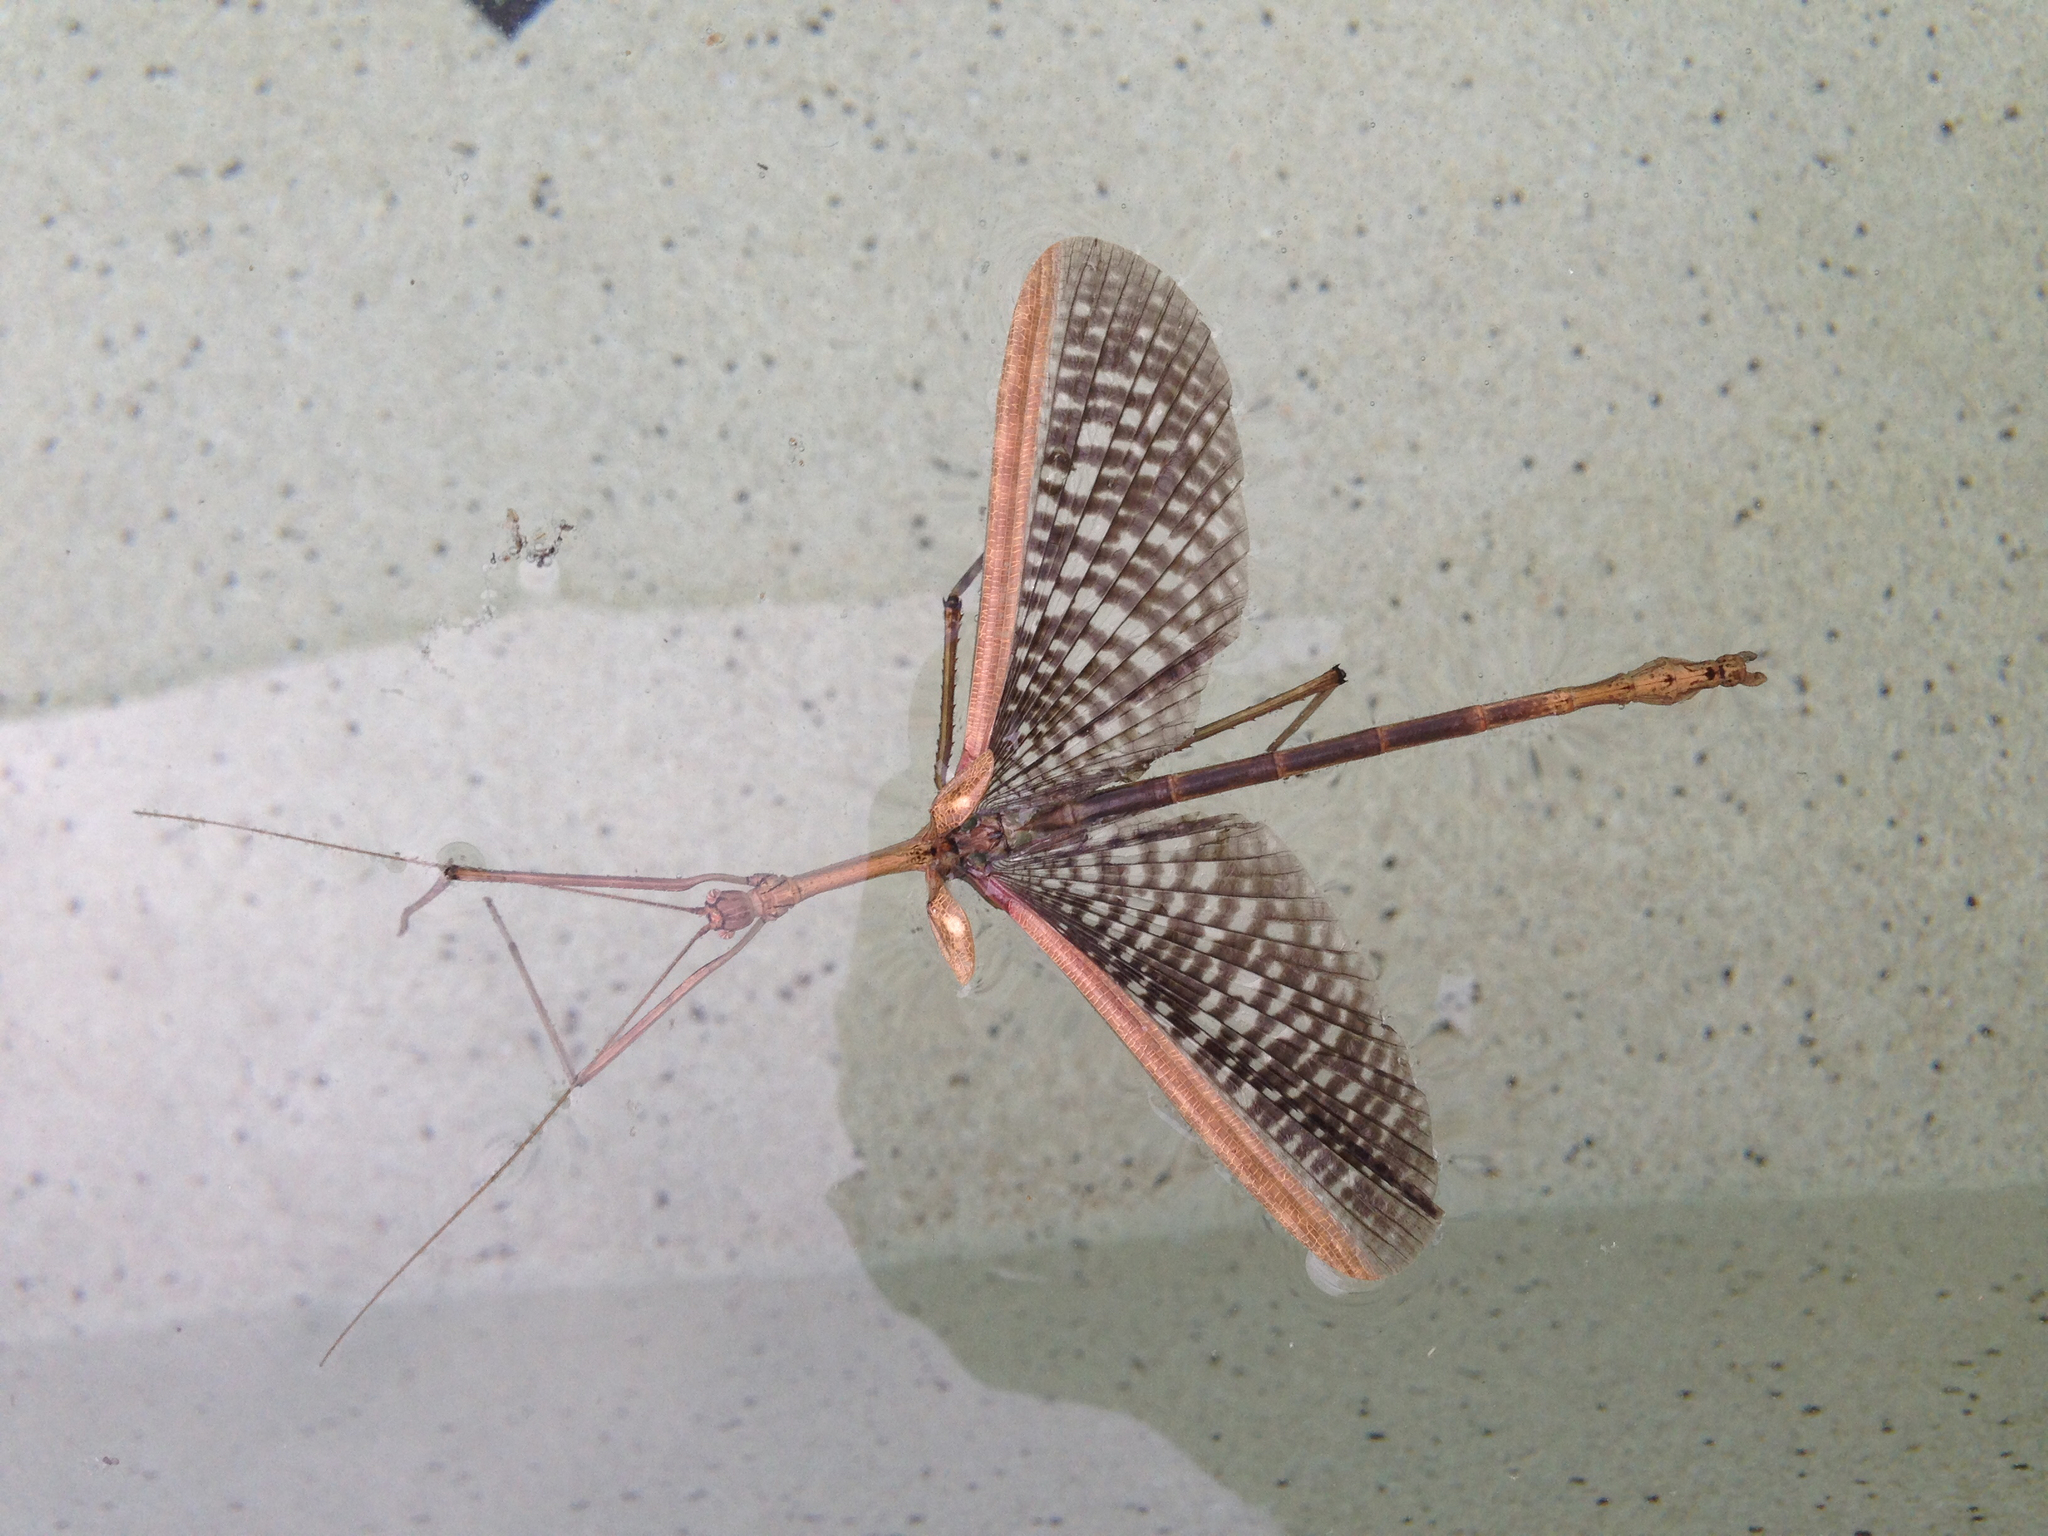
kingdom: Animalia
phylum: Arthropoda
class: Insecta
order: Phasmida
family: Phasmatidae
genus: Anchiale
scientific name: Anchiale briareus
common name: Strong stick insect
